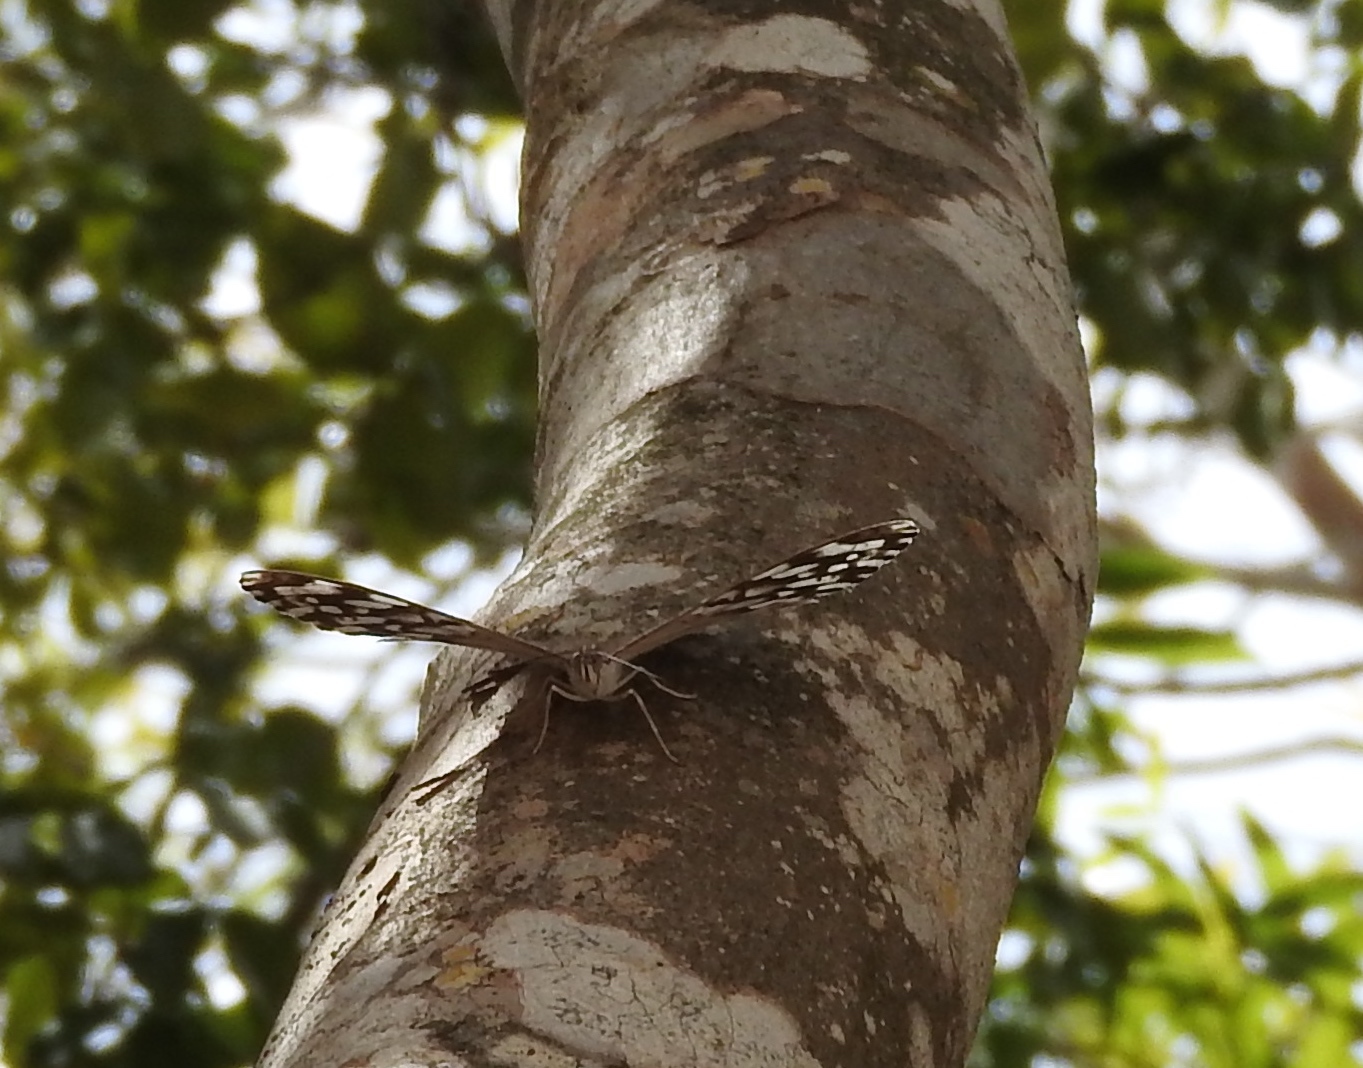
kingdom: Animalia
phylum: Arthropoda
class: Insecta
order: Lepidoptera
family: Nymphalidae
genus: Hamadryas
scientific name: Hamadryas februa
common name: Gray cracker
